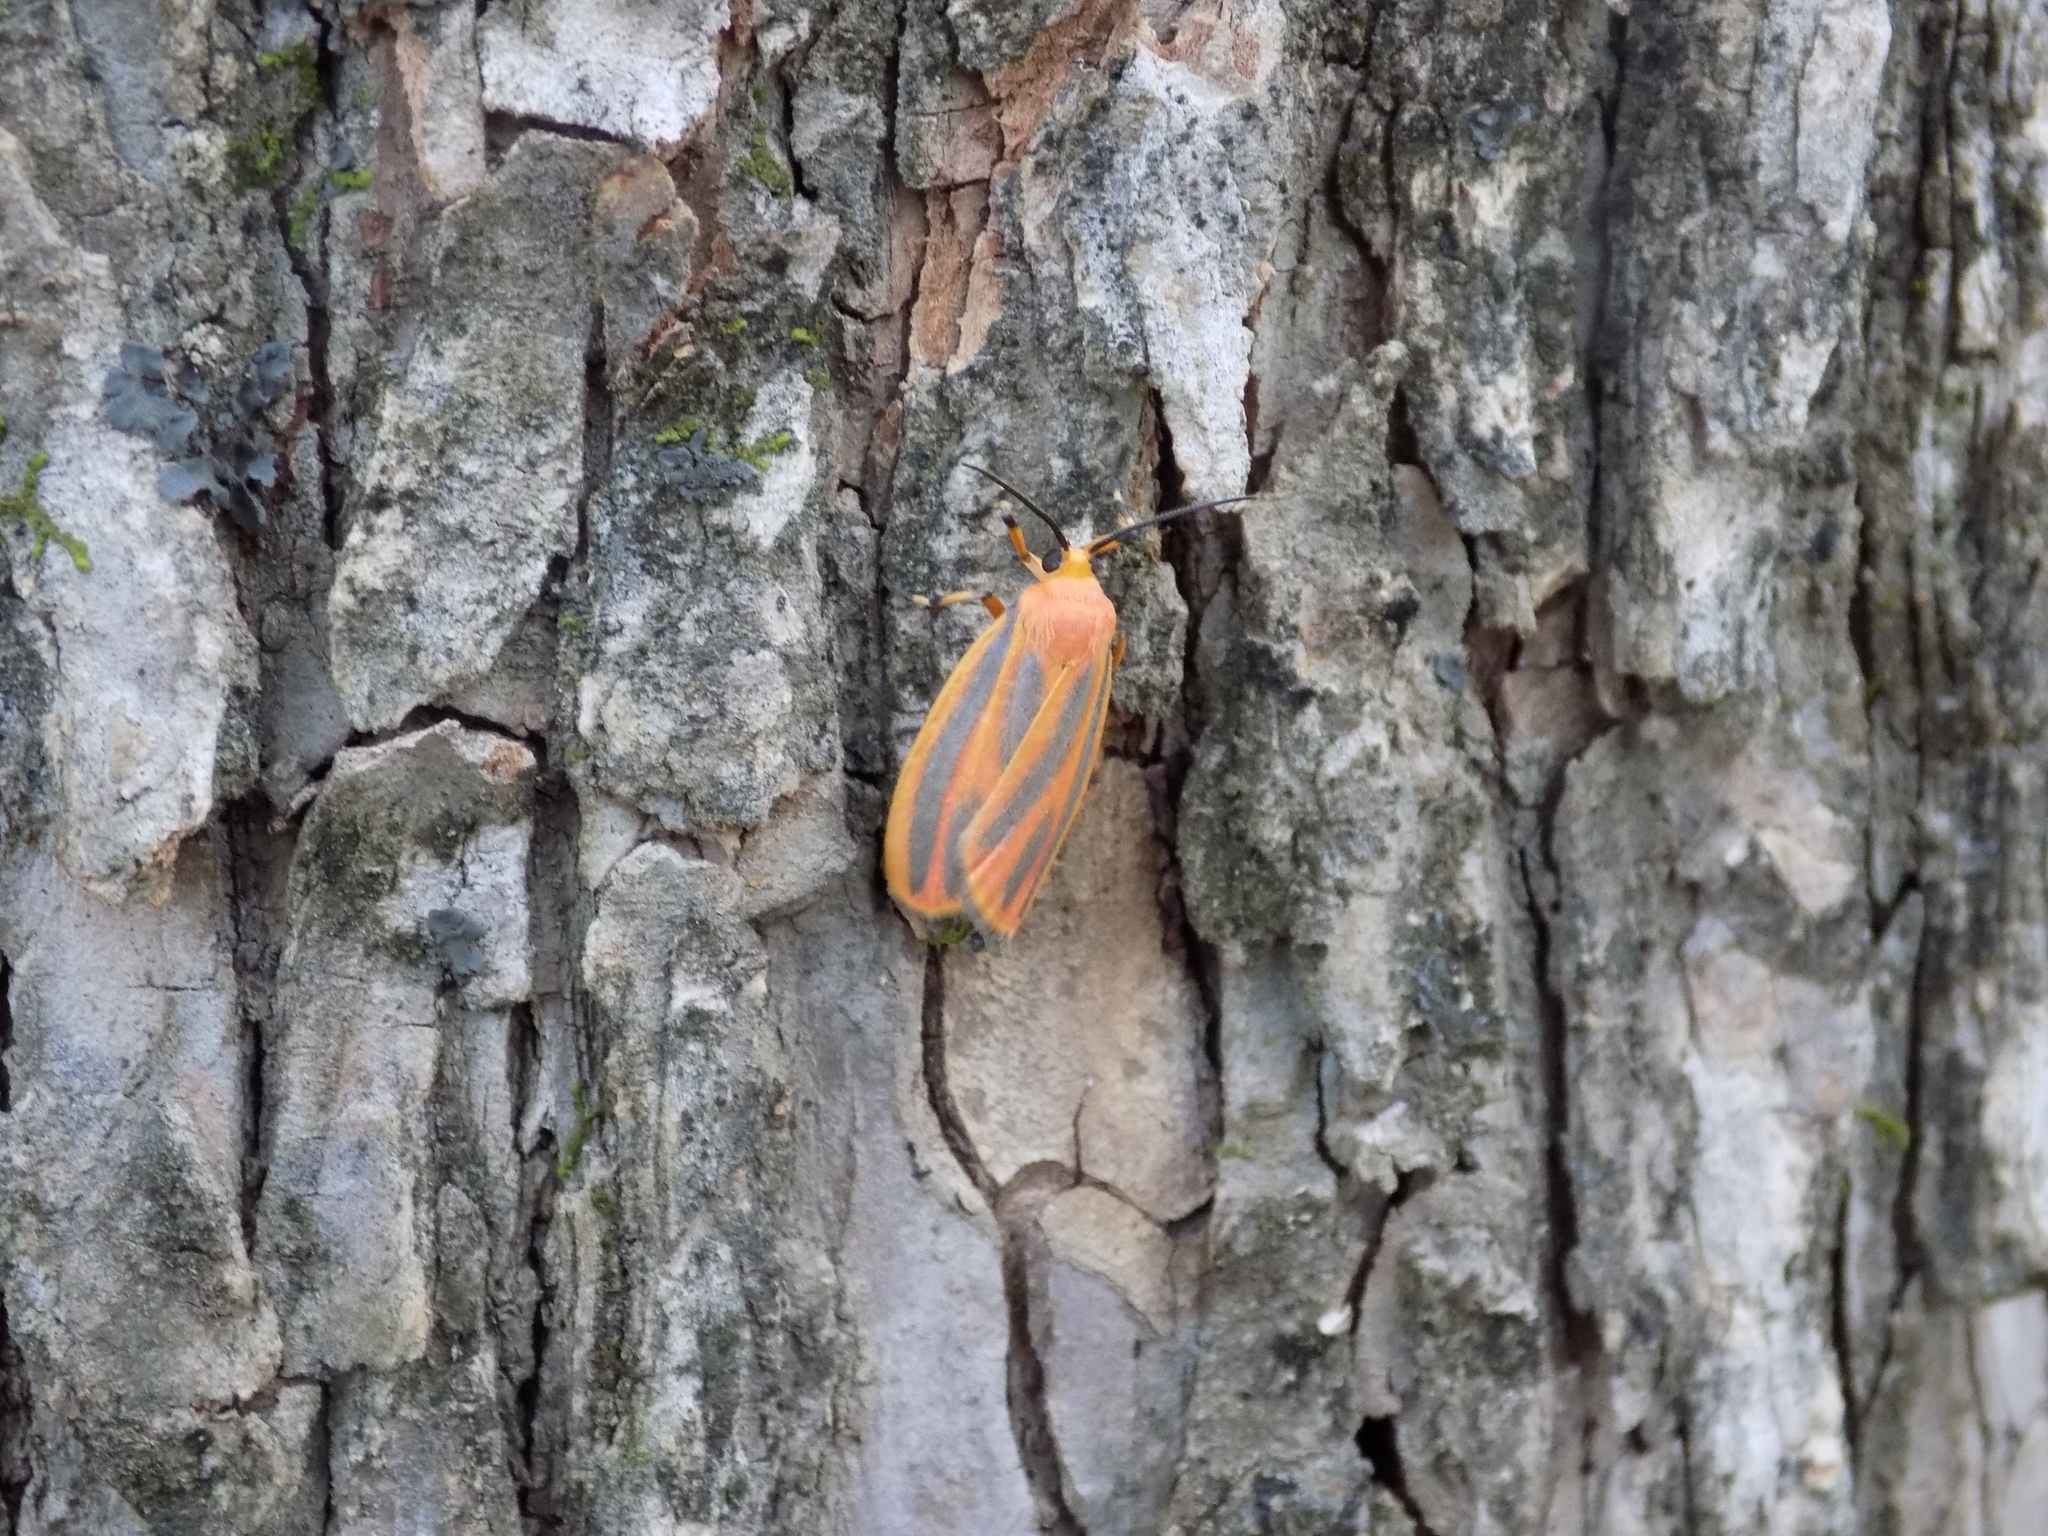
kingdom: Animalia
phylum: Arthropoda
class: Insecta
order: Lepidoptera
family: Erebidae
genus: Hypoprepia
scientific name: Hypoprepia miniata
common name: Scarlet-winged lichen moth
